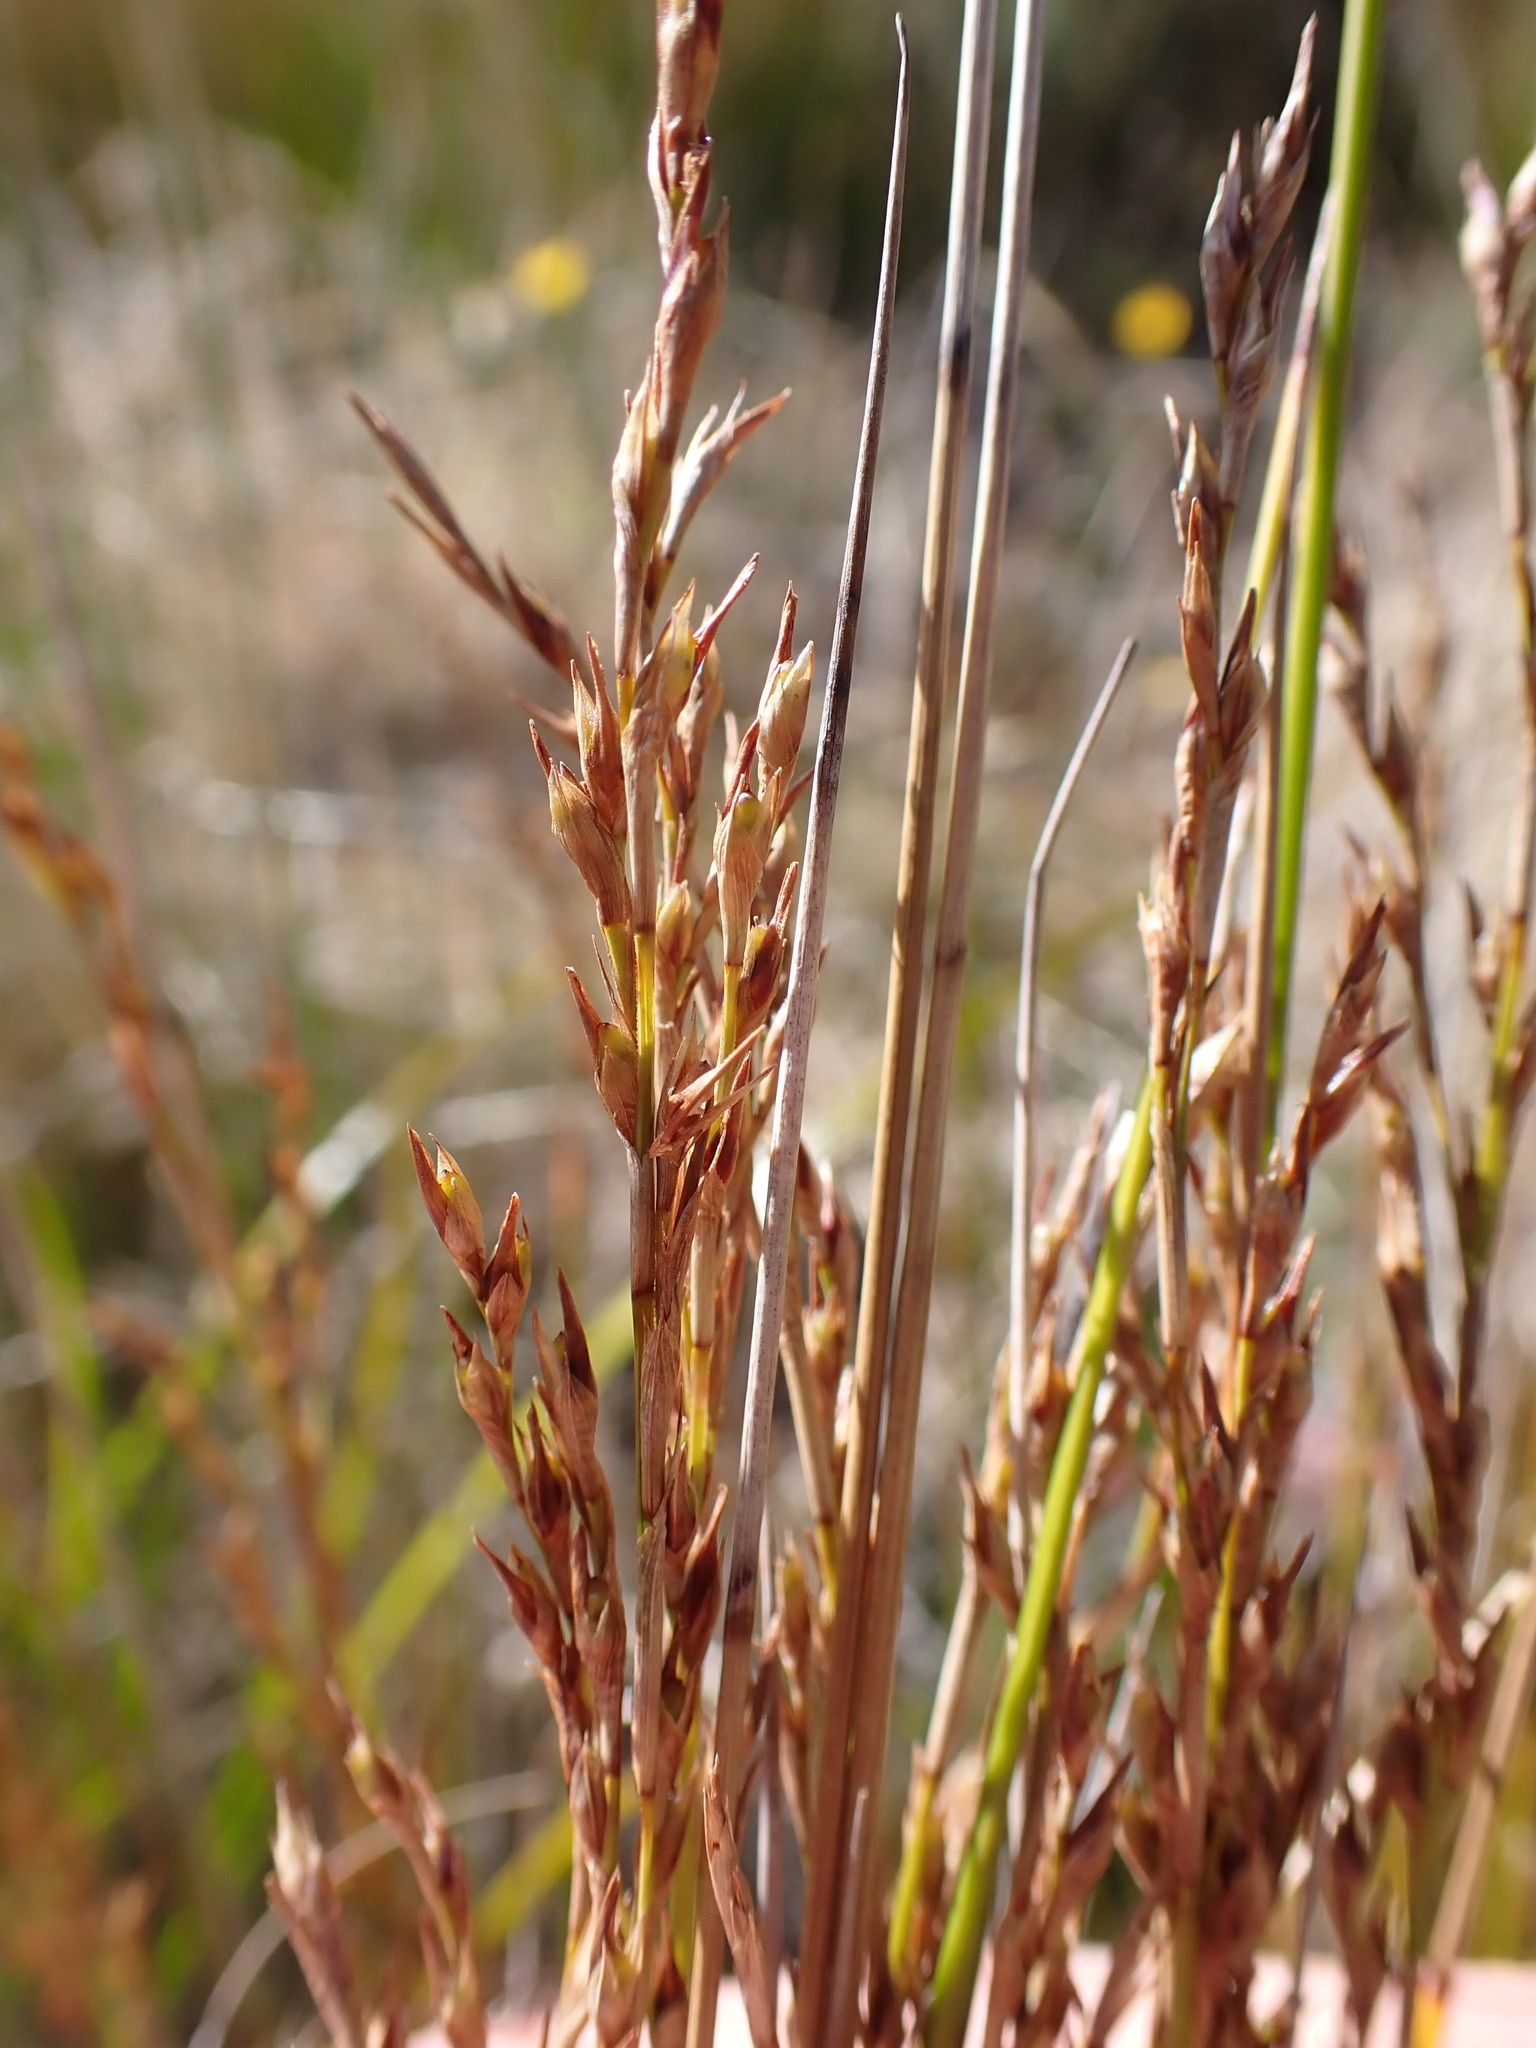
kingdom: Plantae
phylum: Tracheophyta
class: Liliopsida
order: Poales
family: Cyperaceae
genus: Machaerina
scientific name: Machaerina tenax
